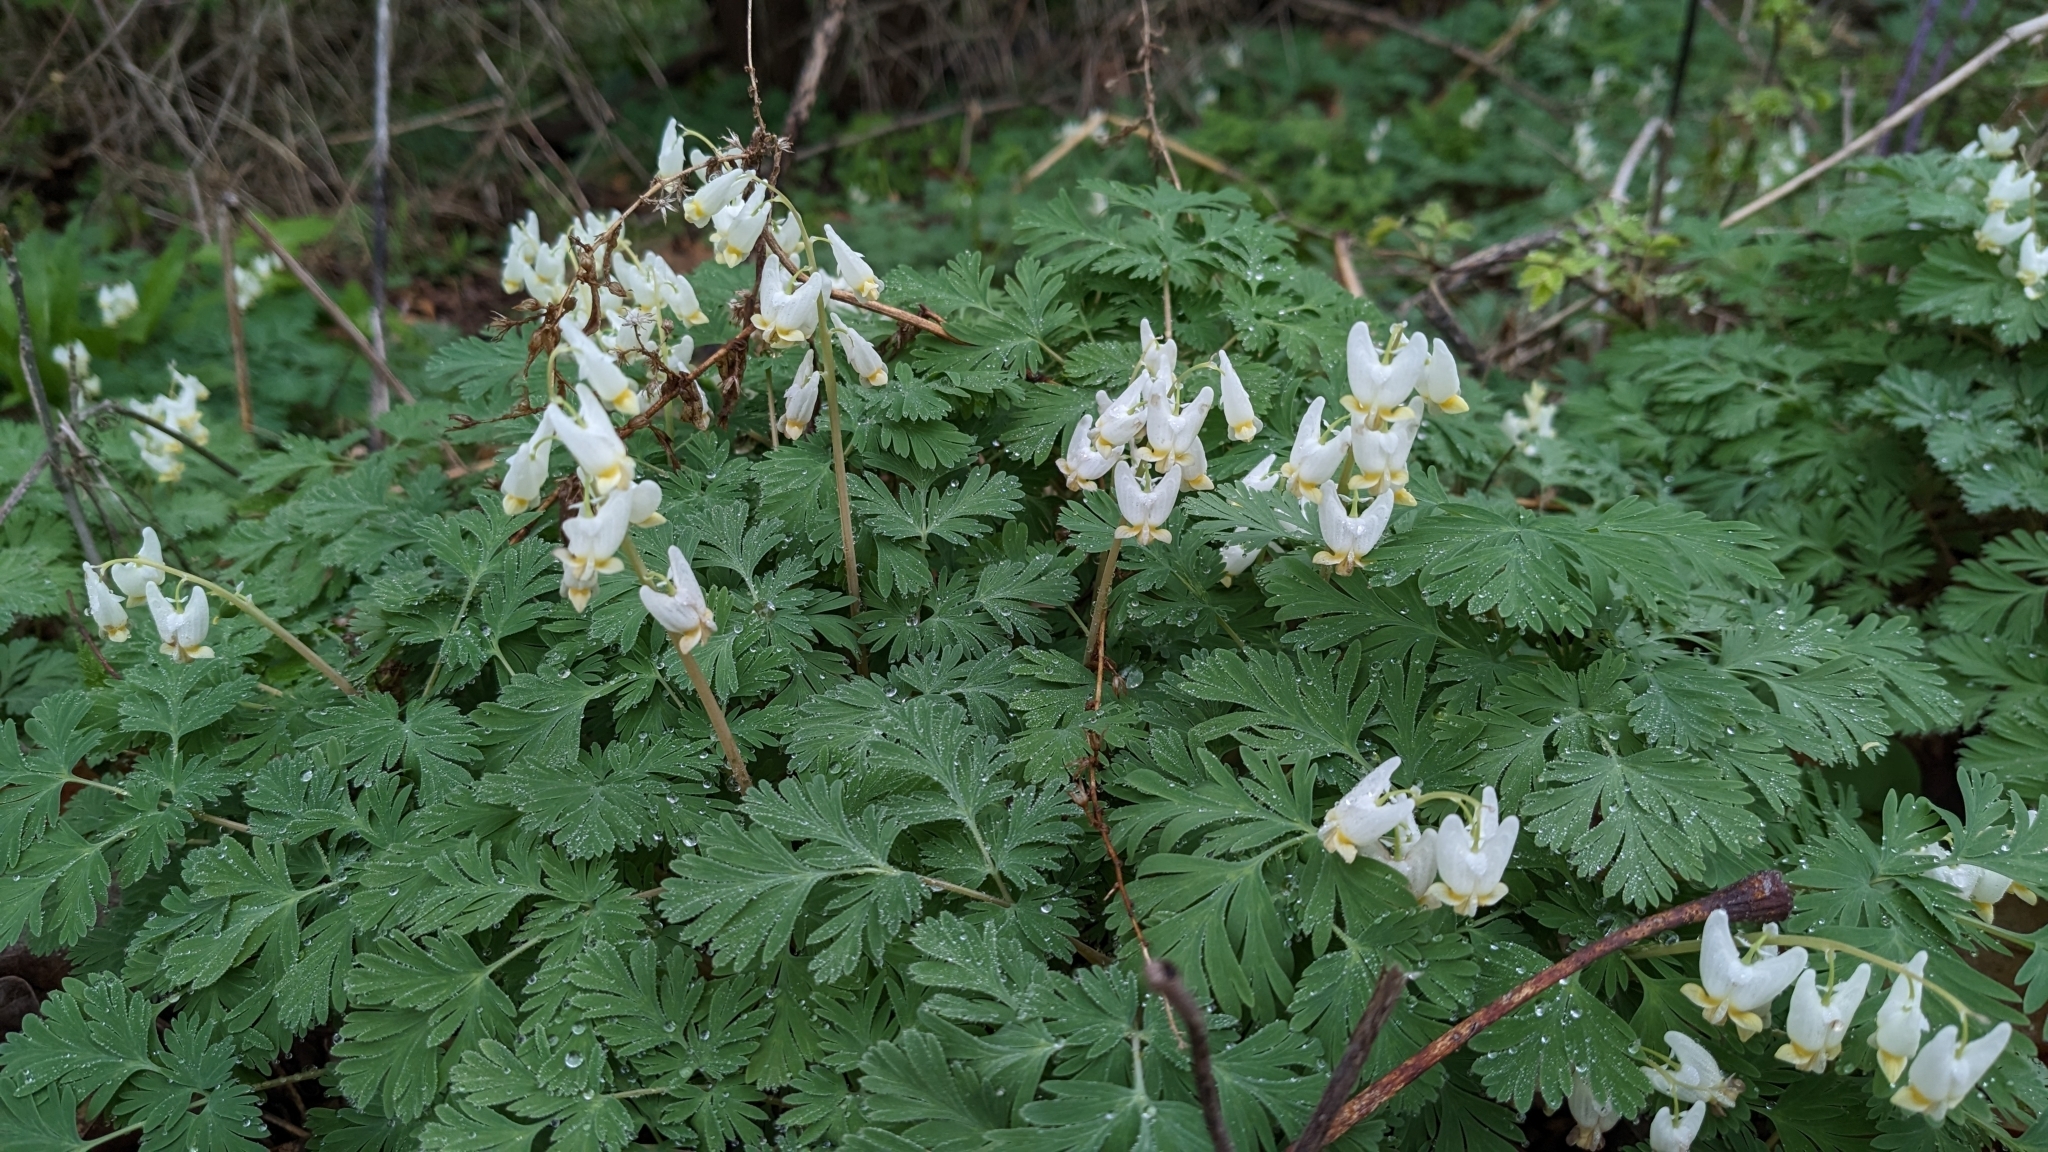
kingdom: Plantae
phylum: Tracheophyta
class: Magnoliopsida
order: Ranunculales
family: Papaveraceae
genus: Dicentra
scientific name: Dicentra cucullaria
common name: Dutchman's breeches
